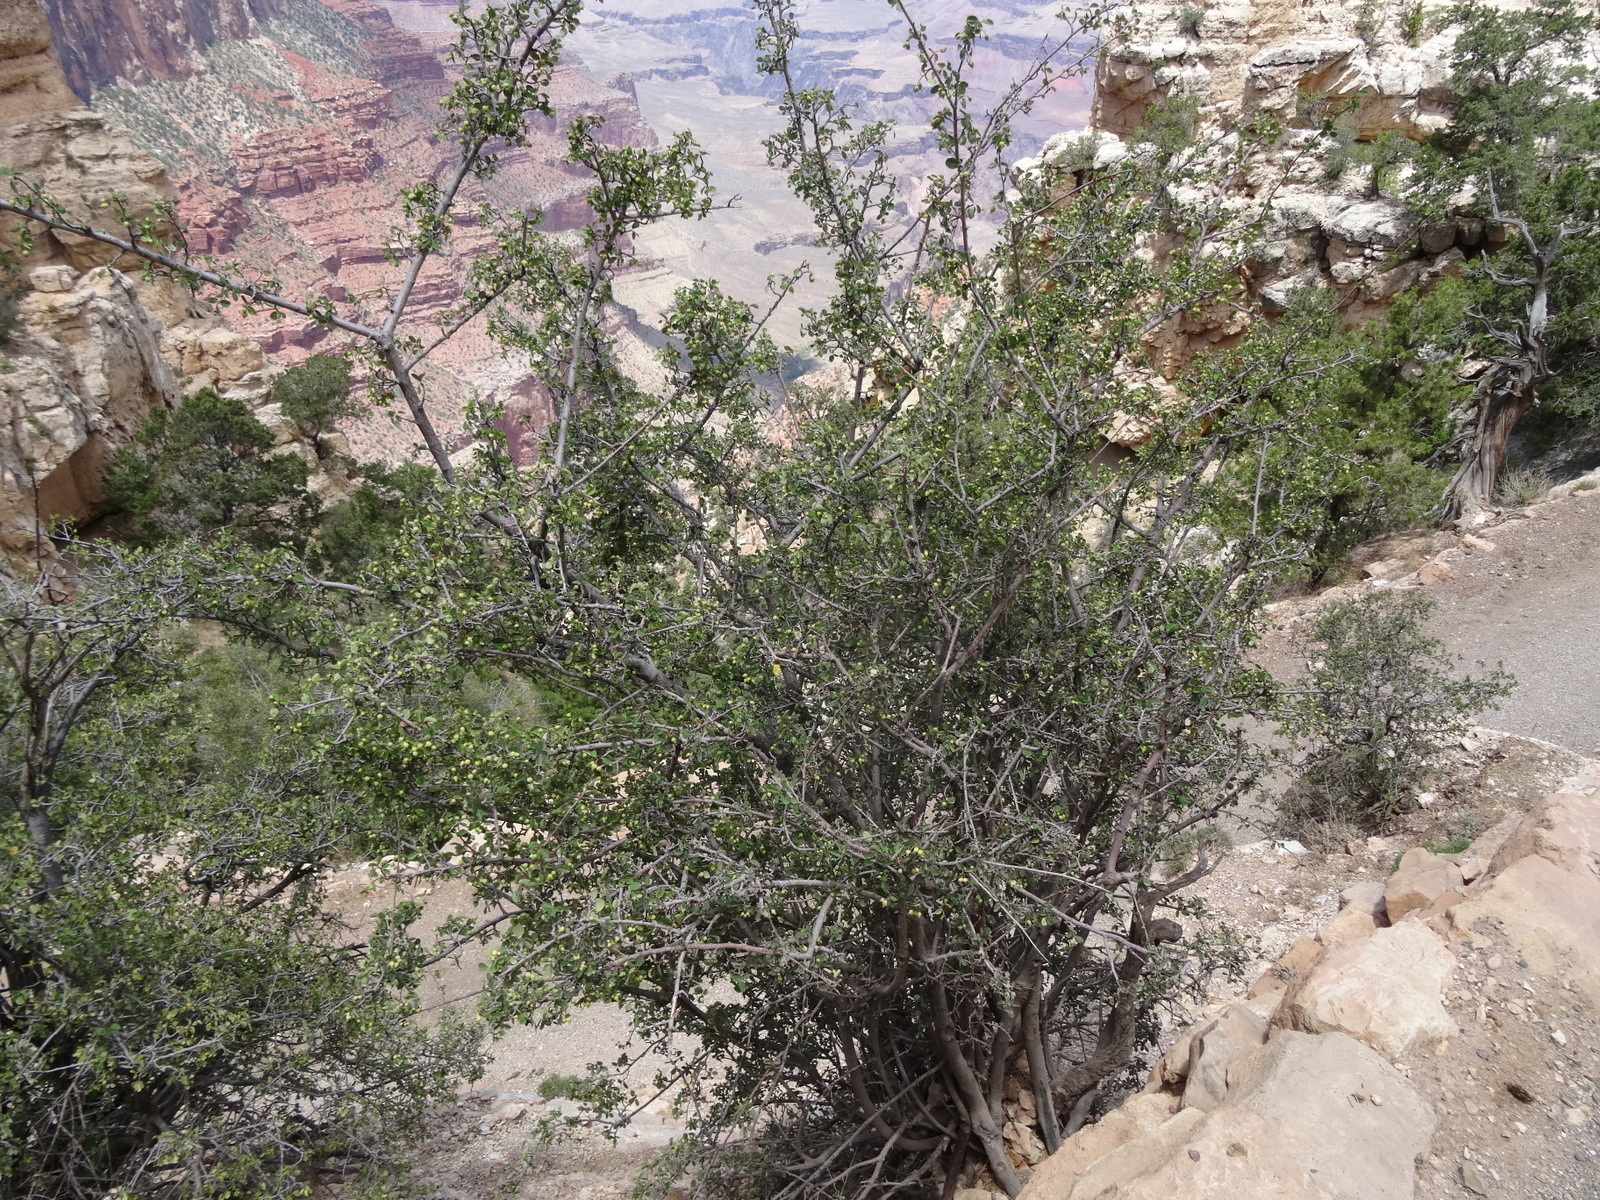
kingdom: Plantae
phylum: Tracheophyta
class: Magnoliopsida
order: Rosales
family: Rosaceae
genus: Amelanchier
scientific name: Amelanchier utahensis
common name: Utah serviceberry
